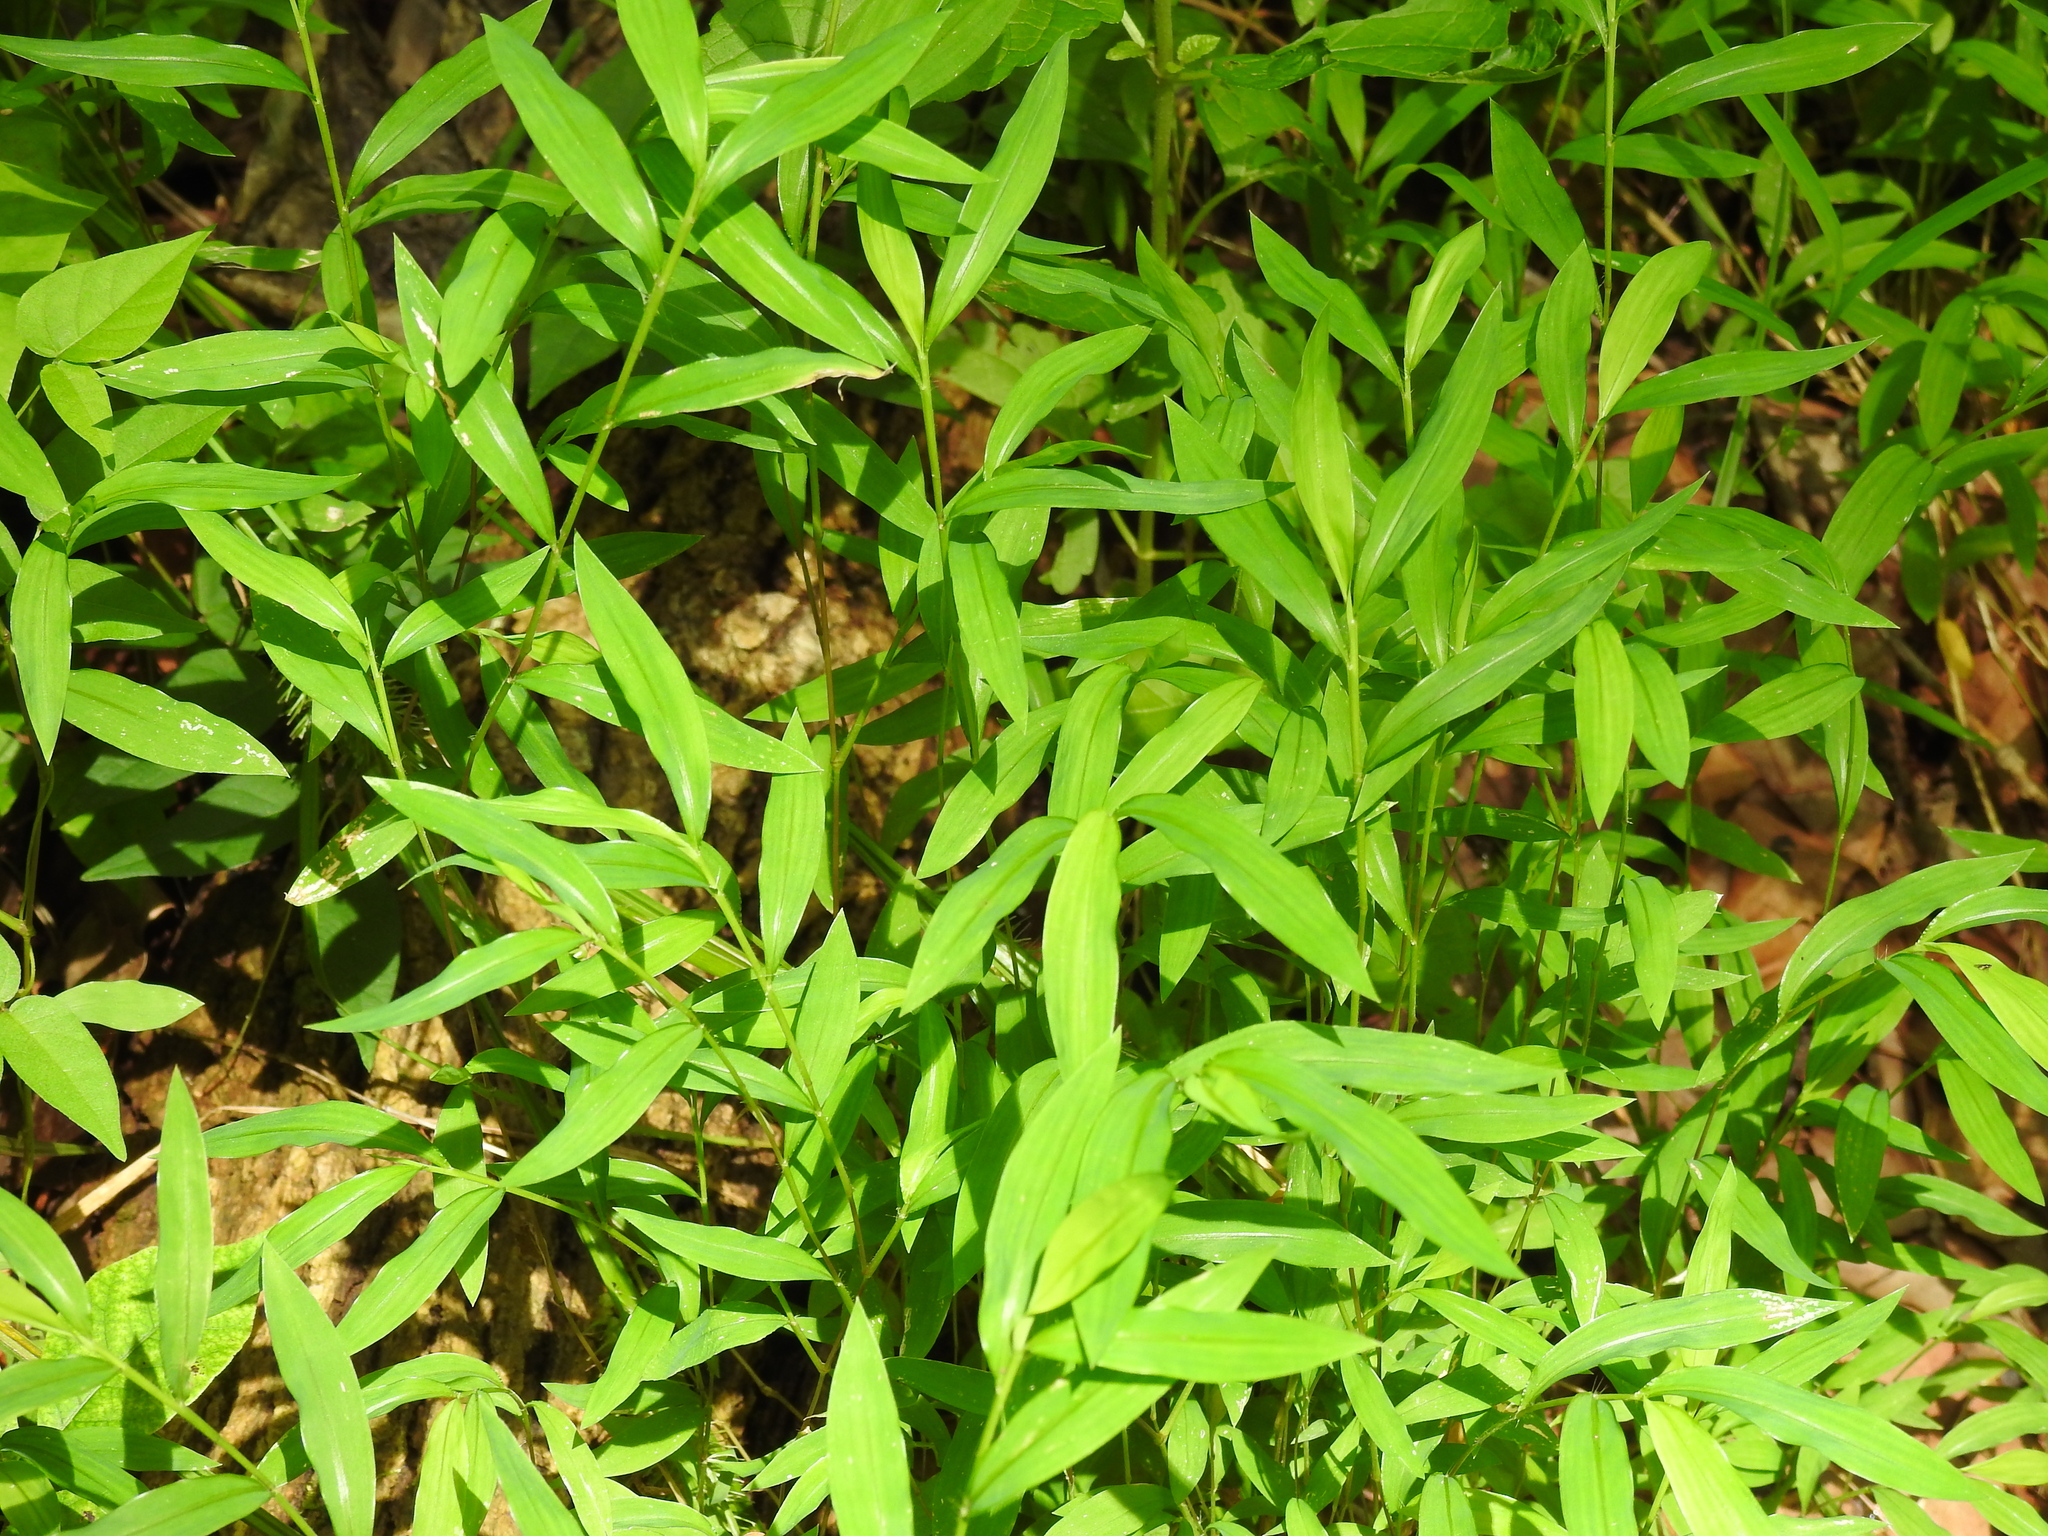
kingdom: Plantae
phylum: Tracheophyta
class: Liliopsida
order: Poales
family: Poaceae
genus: Microstegium
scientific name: Microstegium vimineum
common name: Japanese stiltgrass
